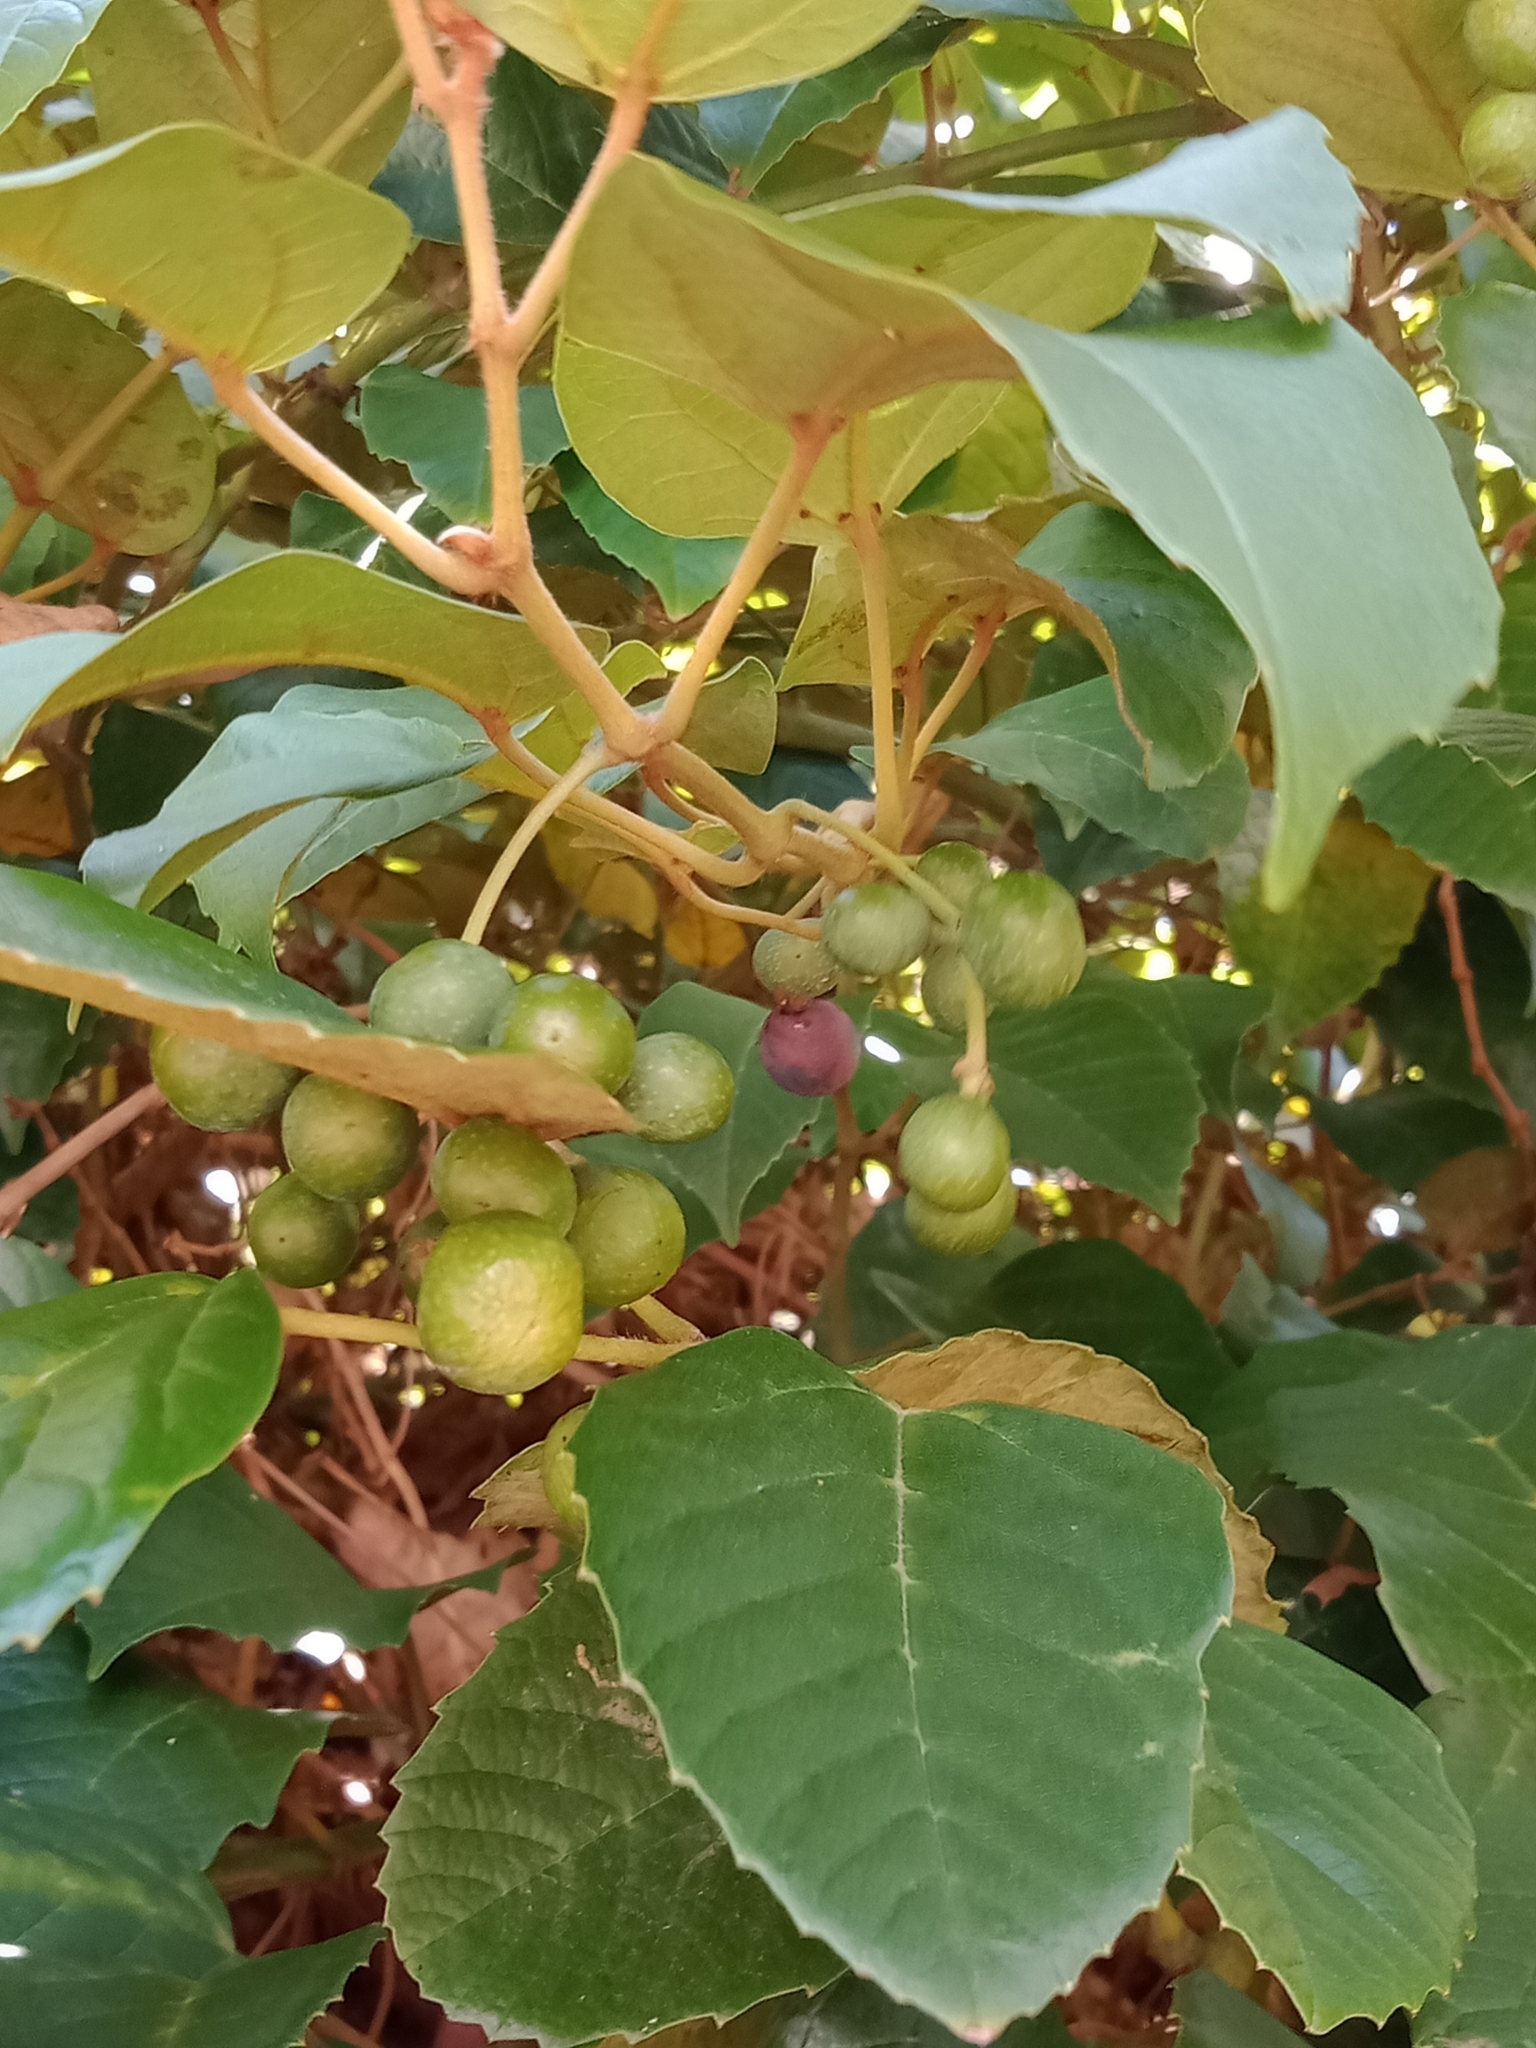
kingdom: Plantae
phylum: Tracheophyta
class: Magnoliopsida
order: Vitales
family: Vitaceae
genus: Cissus
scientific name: Cissus antarctica
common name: Kangaroo vine
